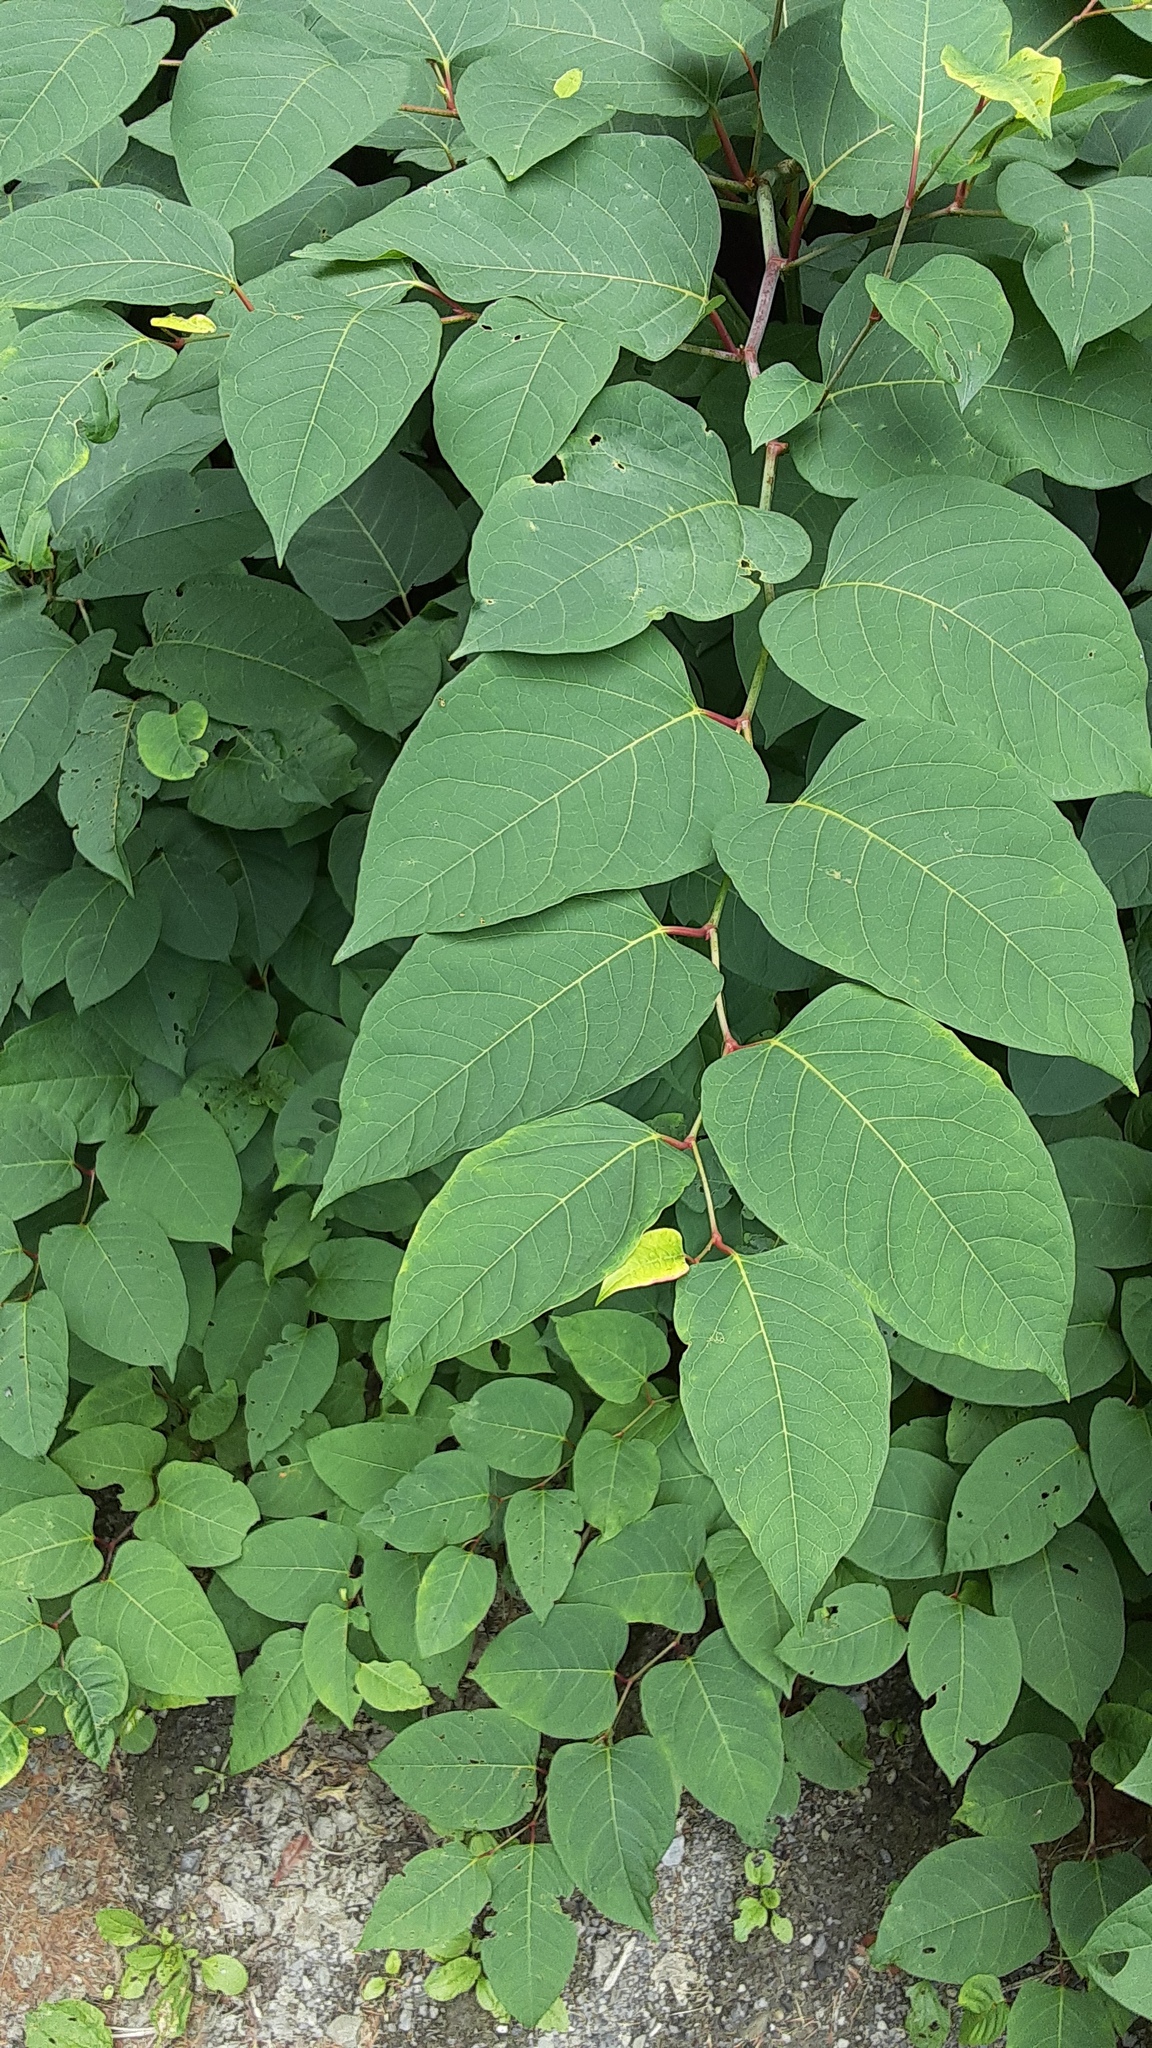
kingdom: Plantae
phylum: Tracheophyta
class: Magnoliopsida
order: Caryophyllales
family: Polygonaceae
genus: Reynoutria
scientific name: Reynoutria japonica
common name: Japanese knotweed
